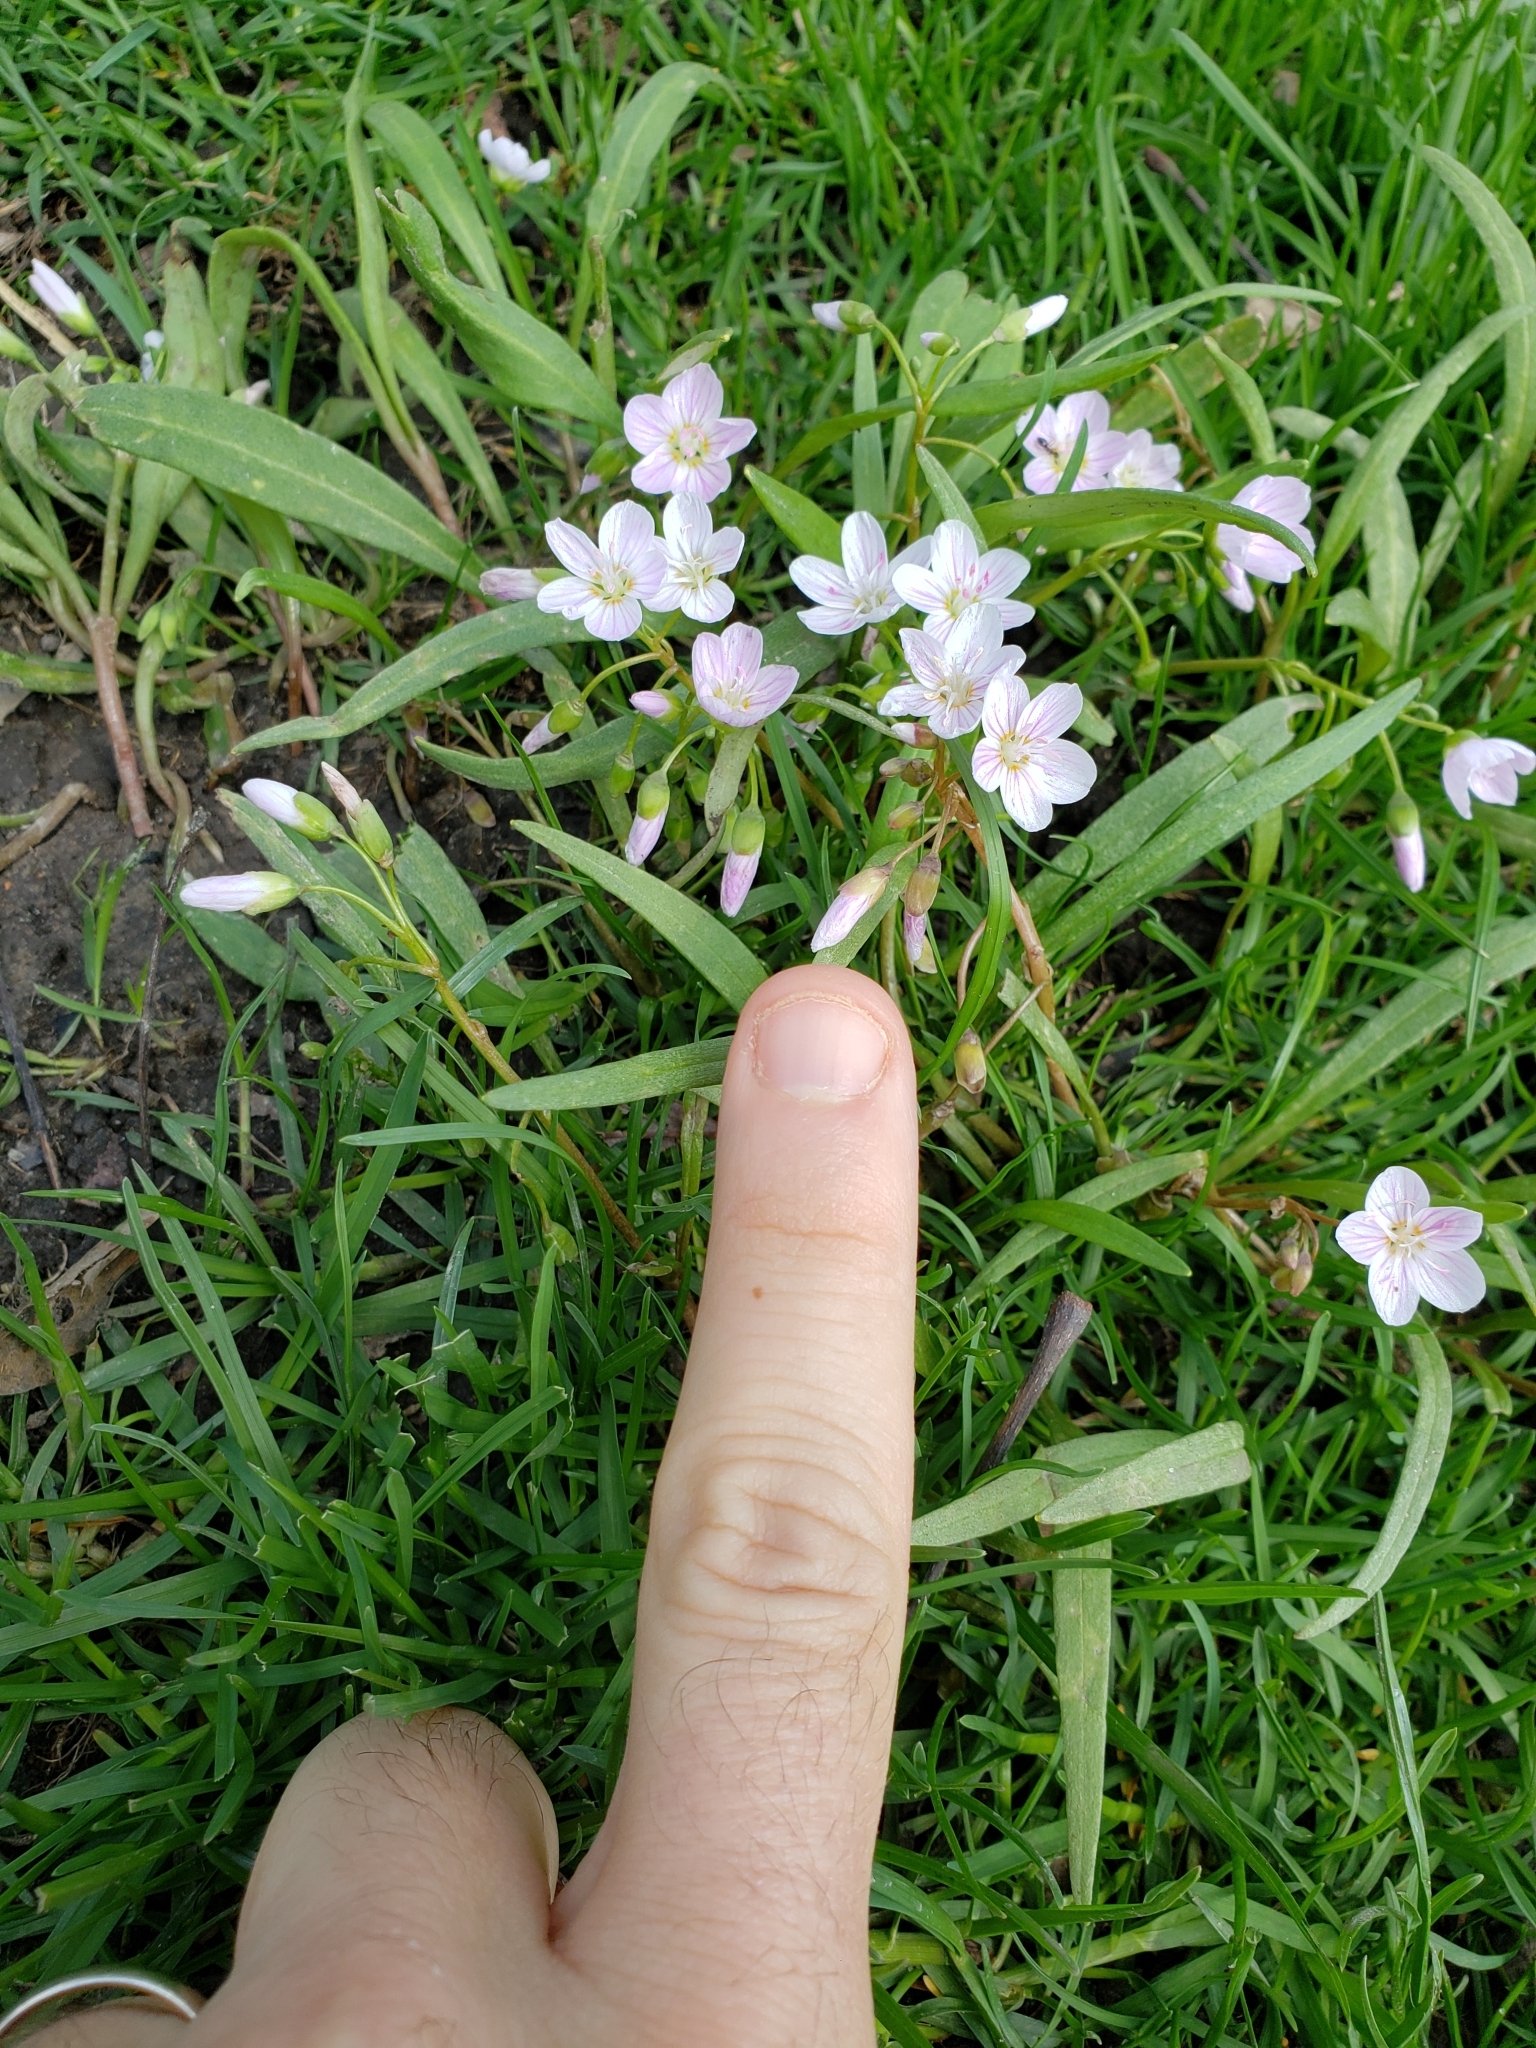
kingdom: Plantae
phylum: Tracheophyta
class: Magnoliopsida
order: Caryophyllales
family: Montiaceae
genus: Claytonia
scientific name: Claytonia virginica
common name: Virginia springbeauty
